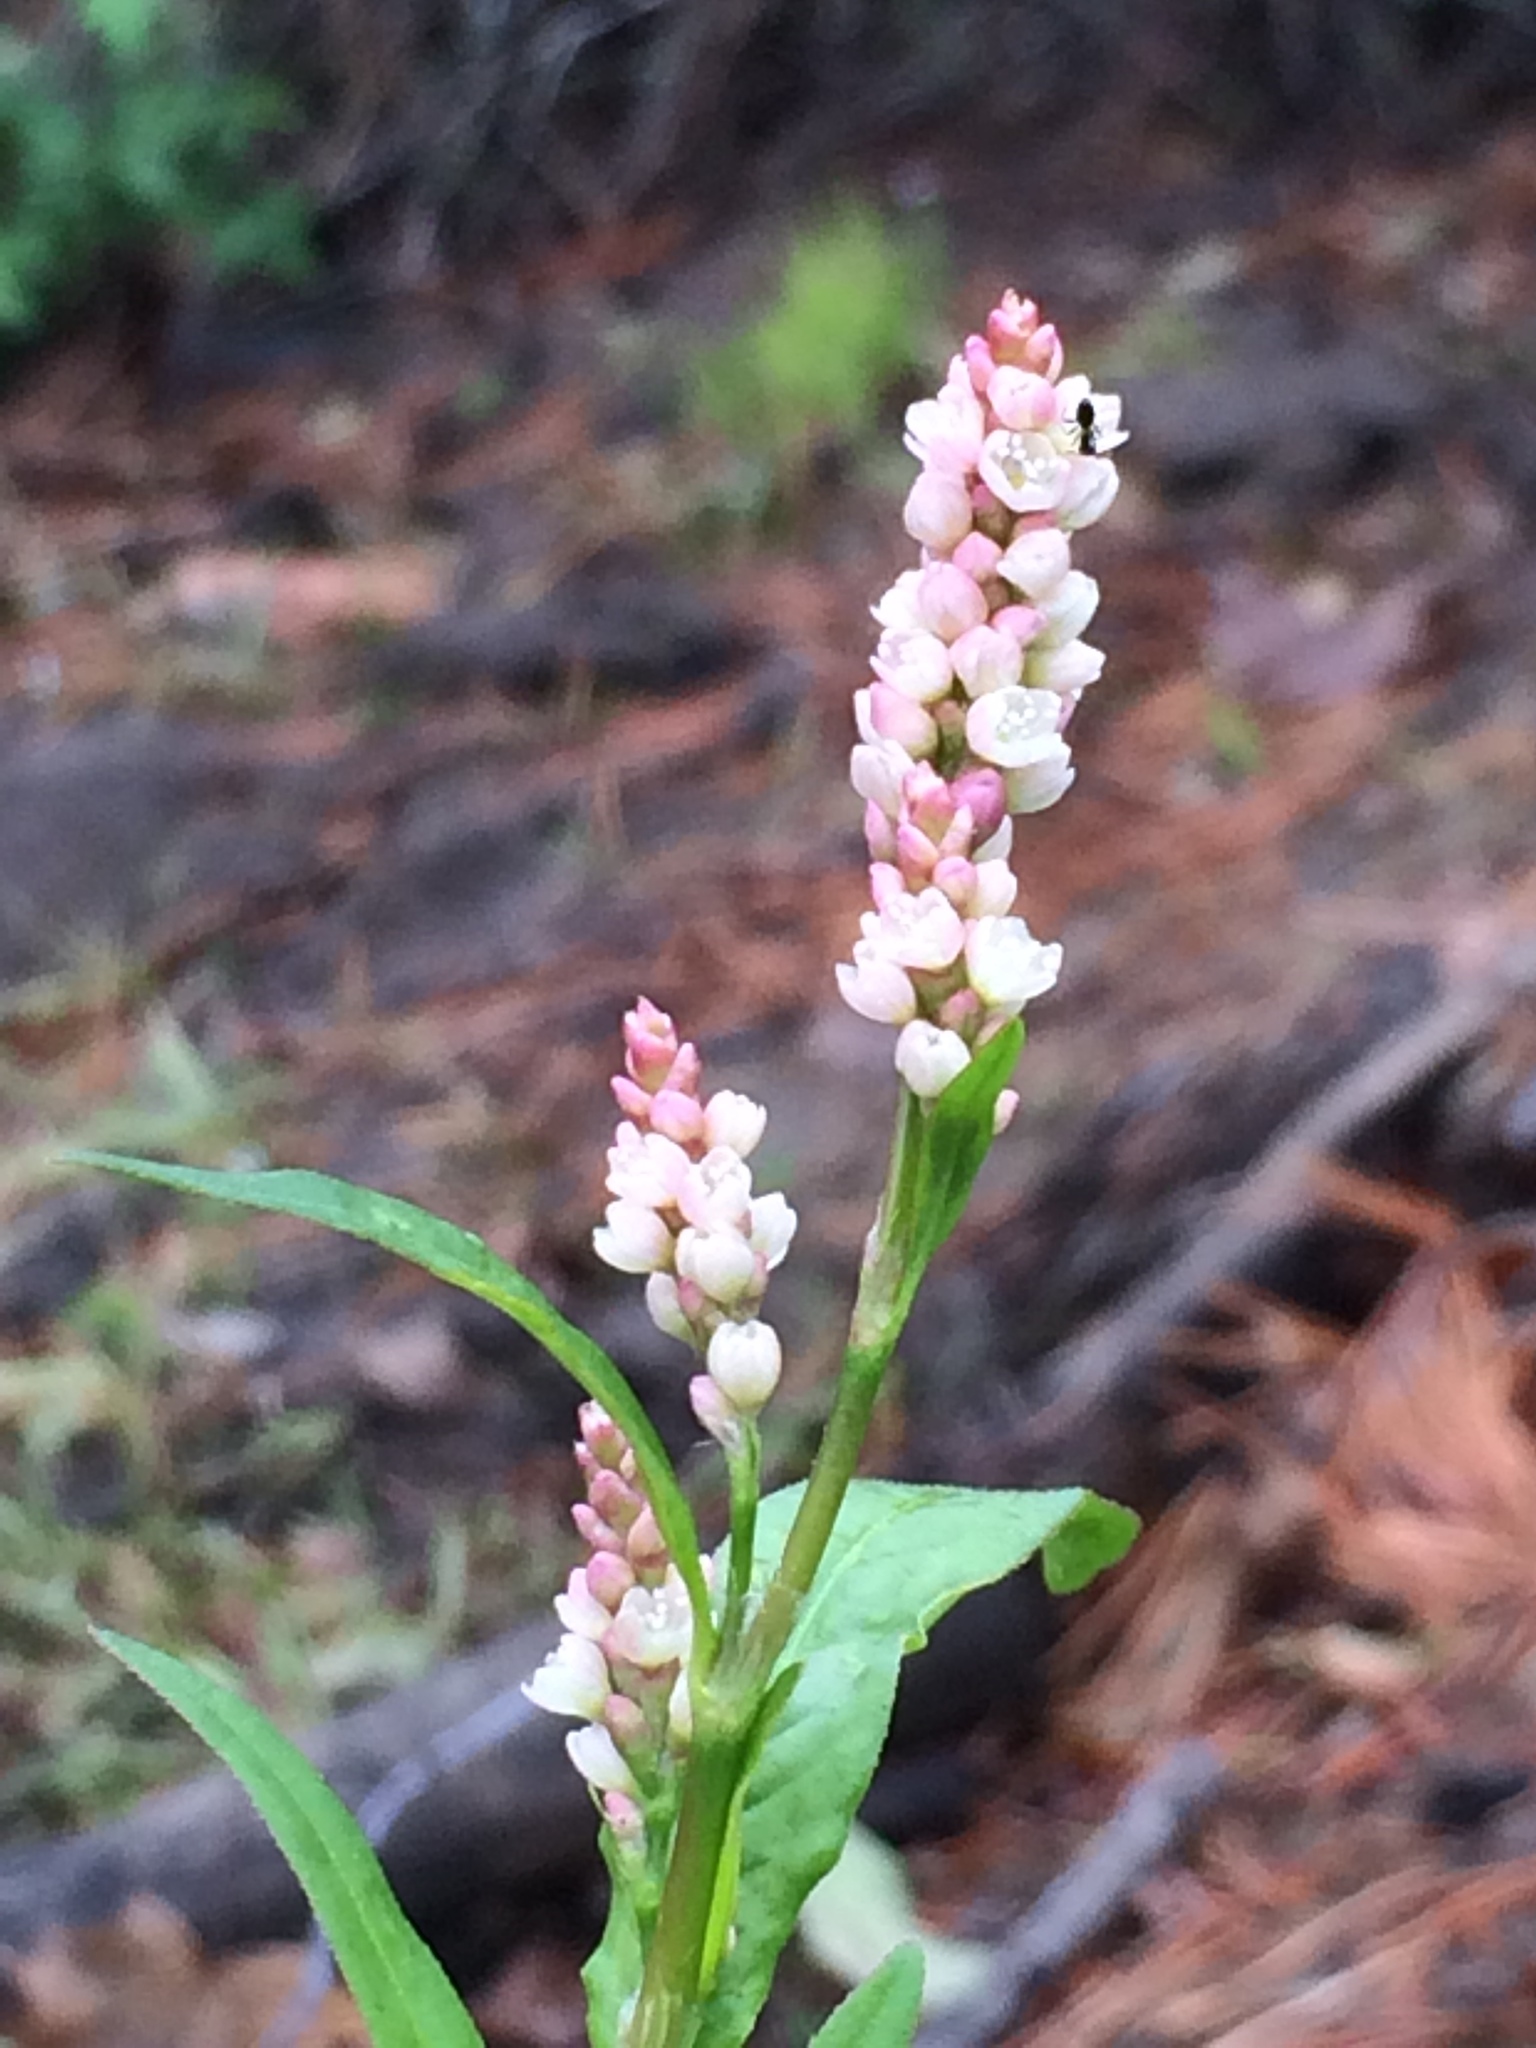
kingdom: Plantae
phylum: Tracheophyta
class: Magnoliopsida
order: Caryophyllales
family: Polygonaceae
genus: Persicaria
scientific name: Persicaria maculosa
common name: Redshank
